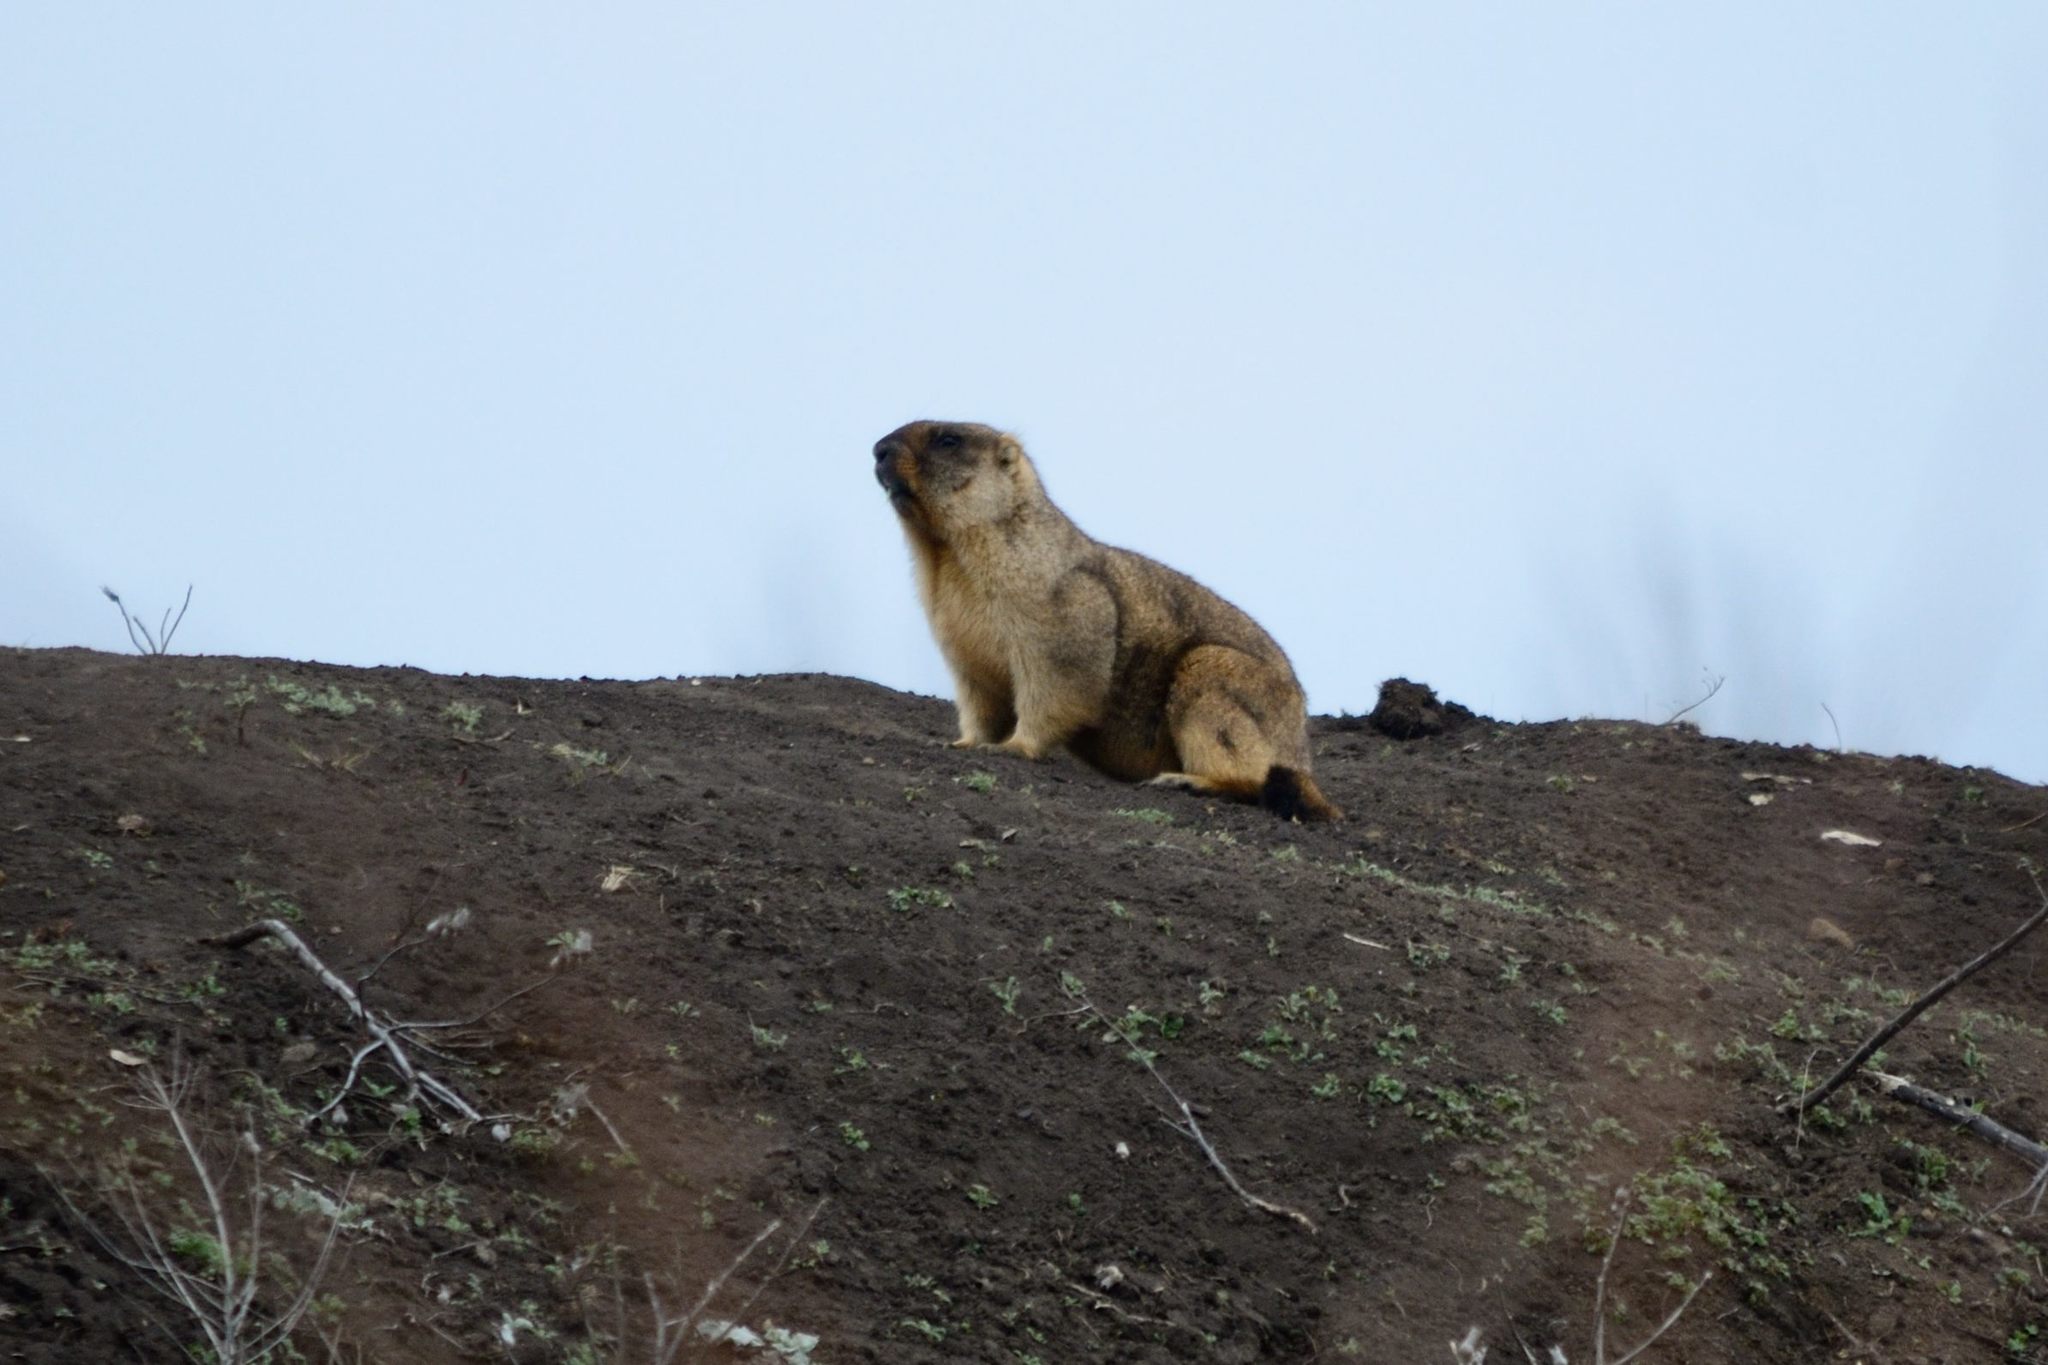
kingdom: Animalia
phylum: Chordata
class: Mammalia
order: Rodentia
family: Sciuridae
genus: Marmota
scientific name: Marmota bobak
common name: Bobak marmot
